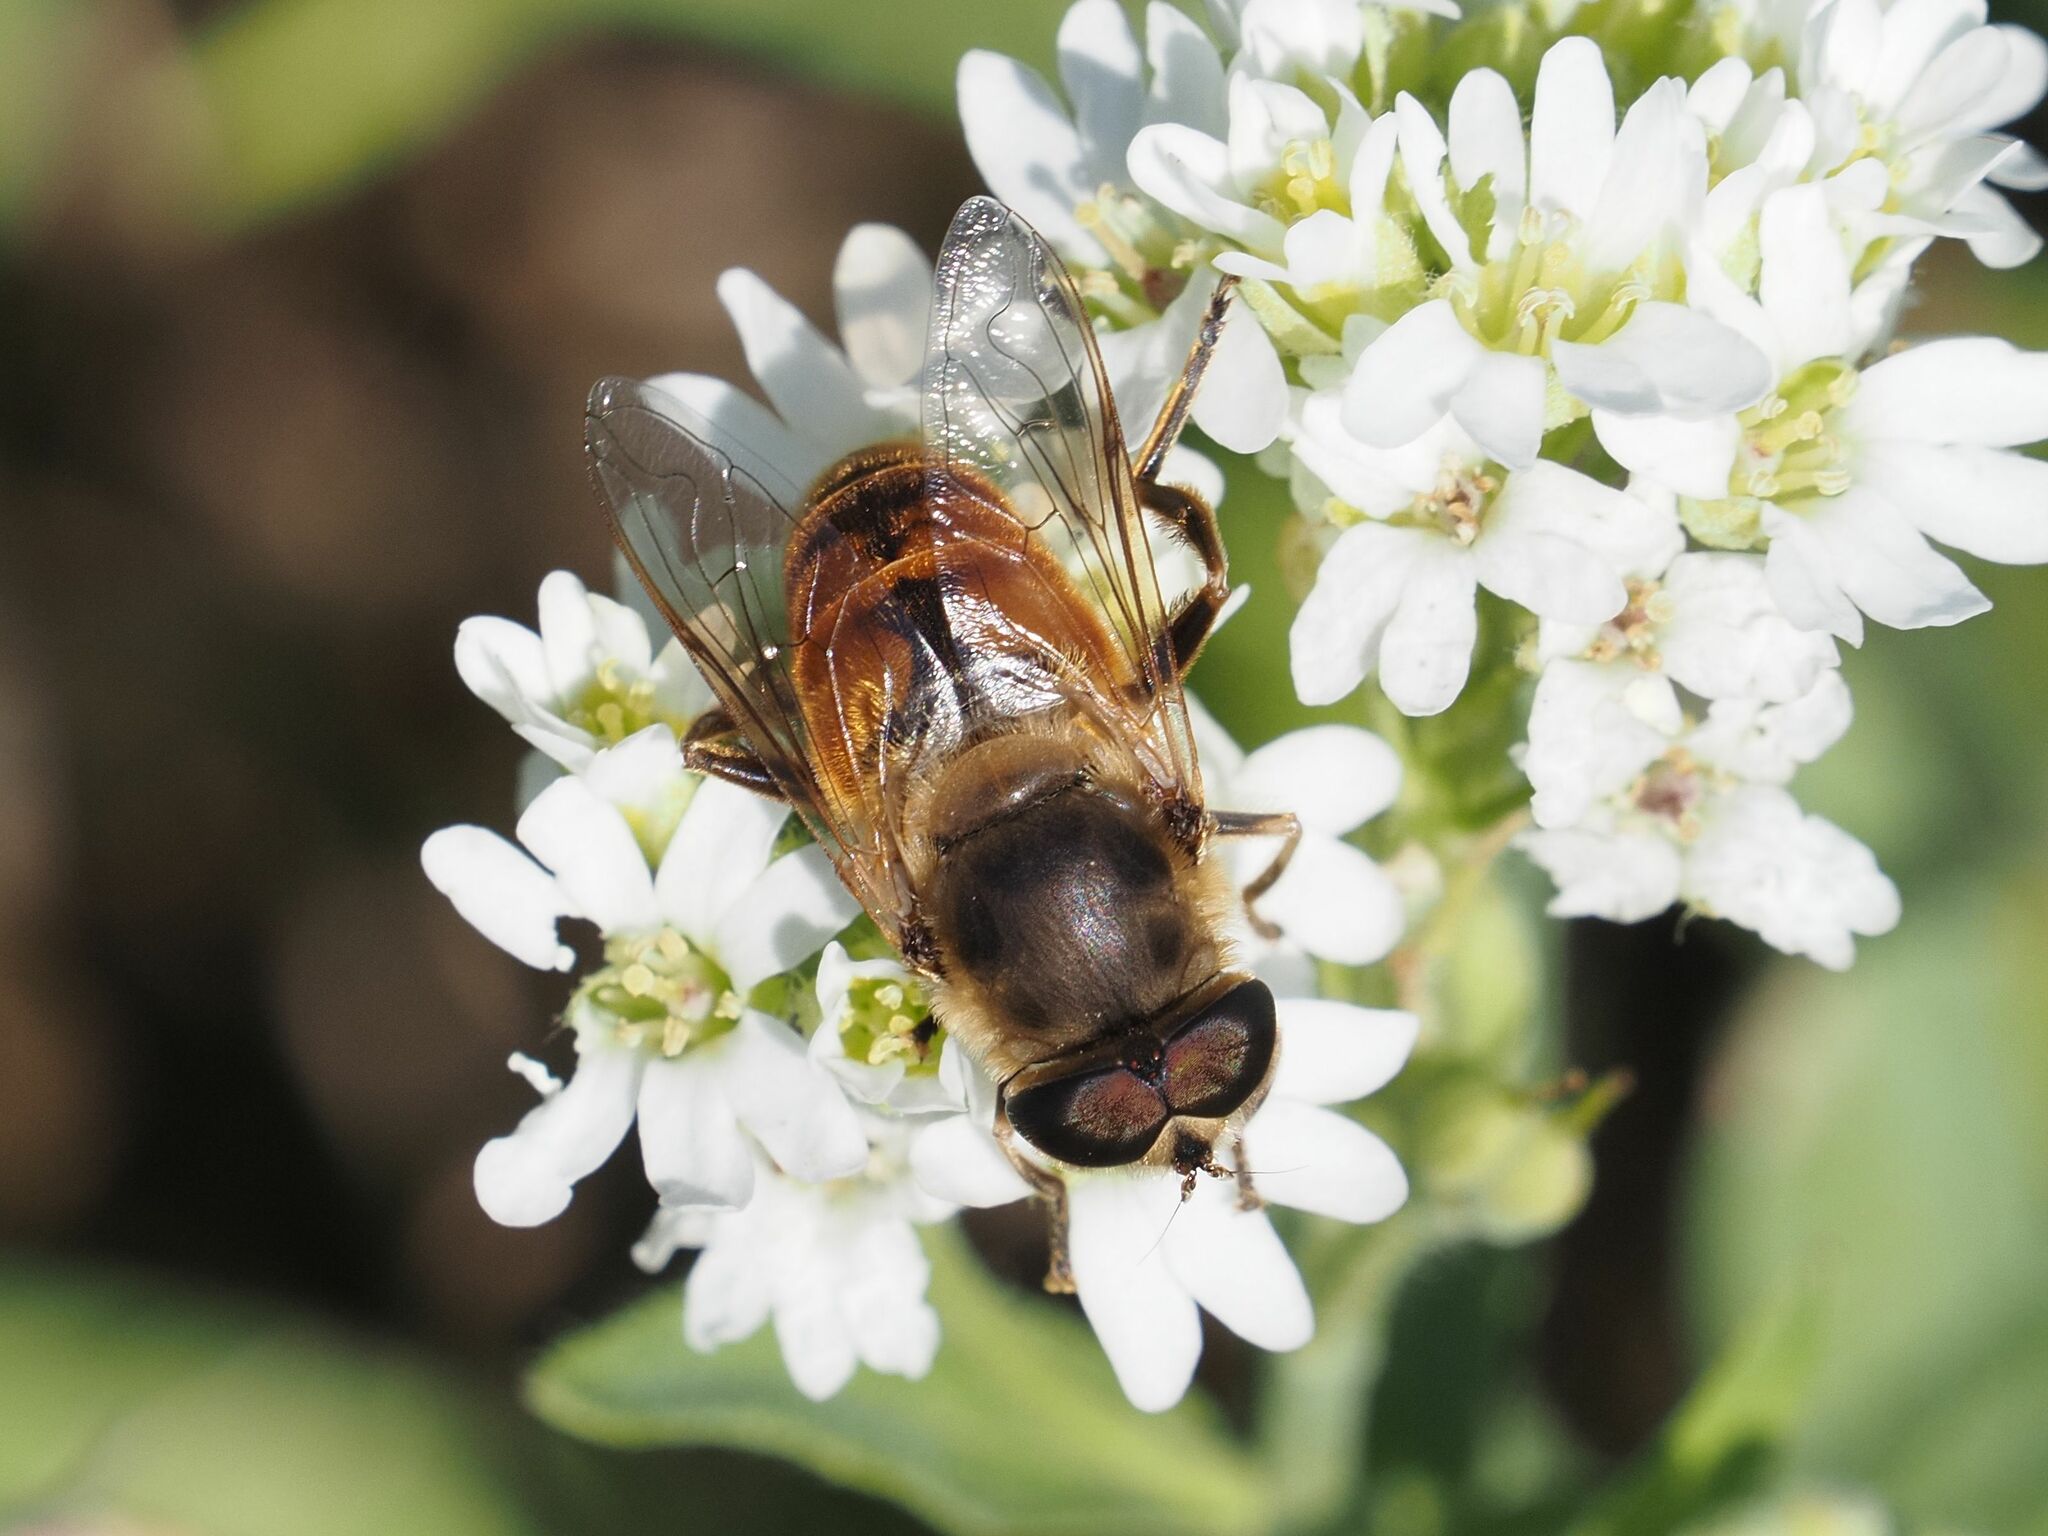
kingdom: Animalia
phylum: Arthropoda
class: Insecta
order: Diptera
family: Syrphidae
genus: Eristalis
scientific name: Eristalis tenax
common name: Drone fly
